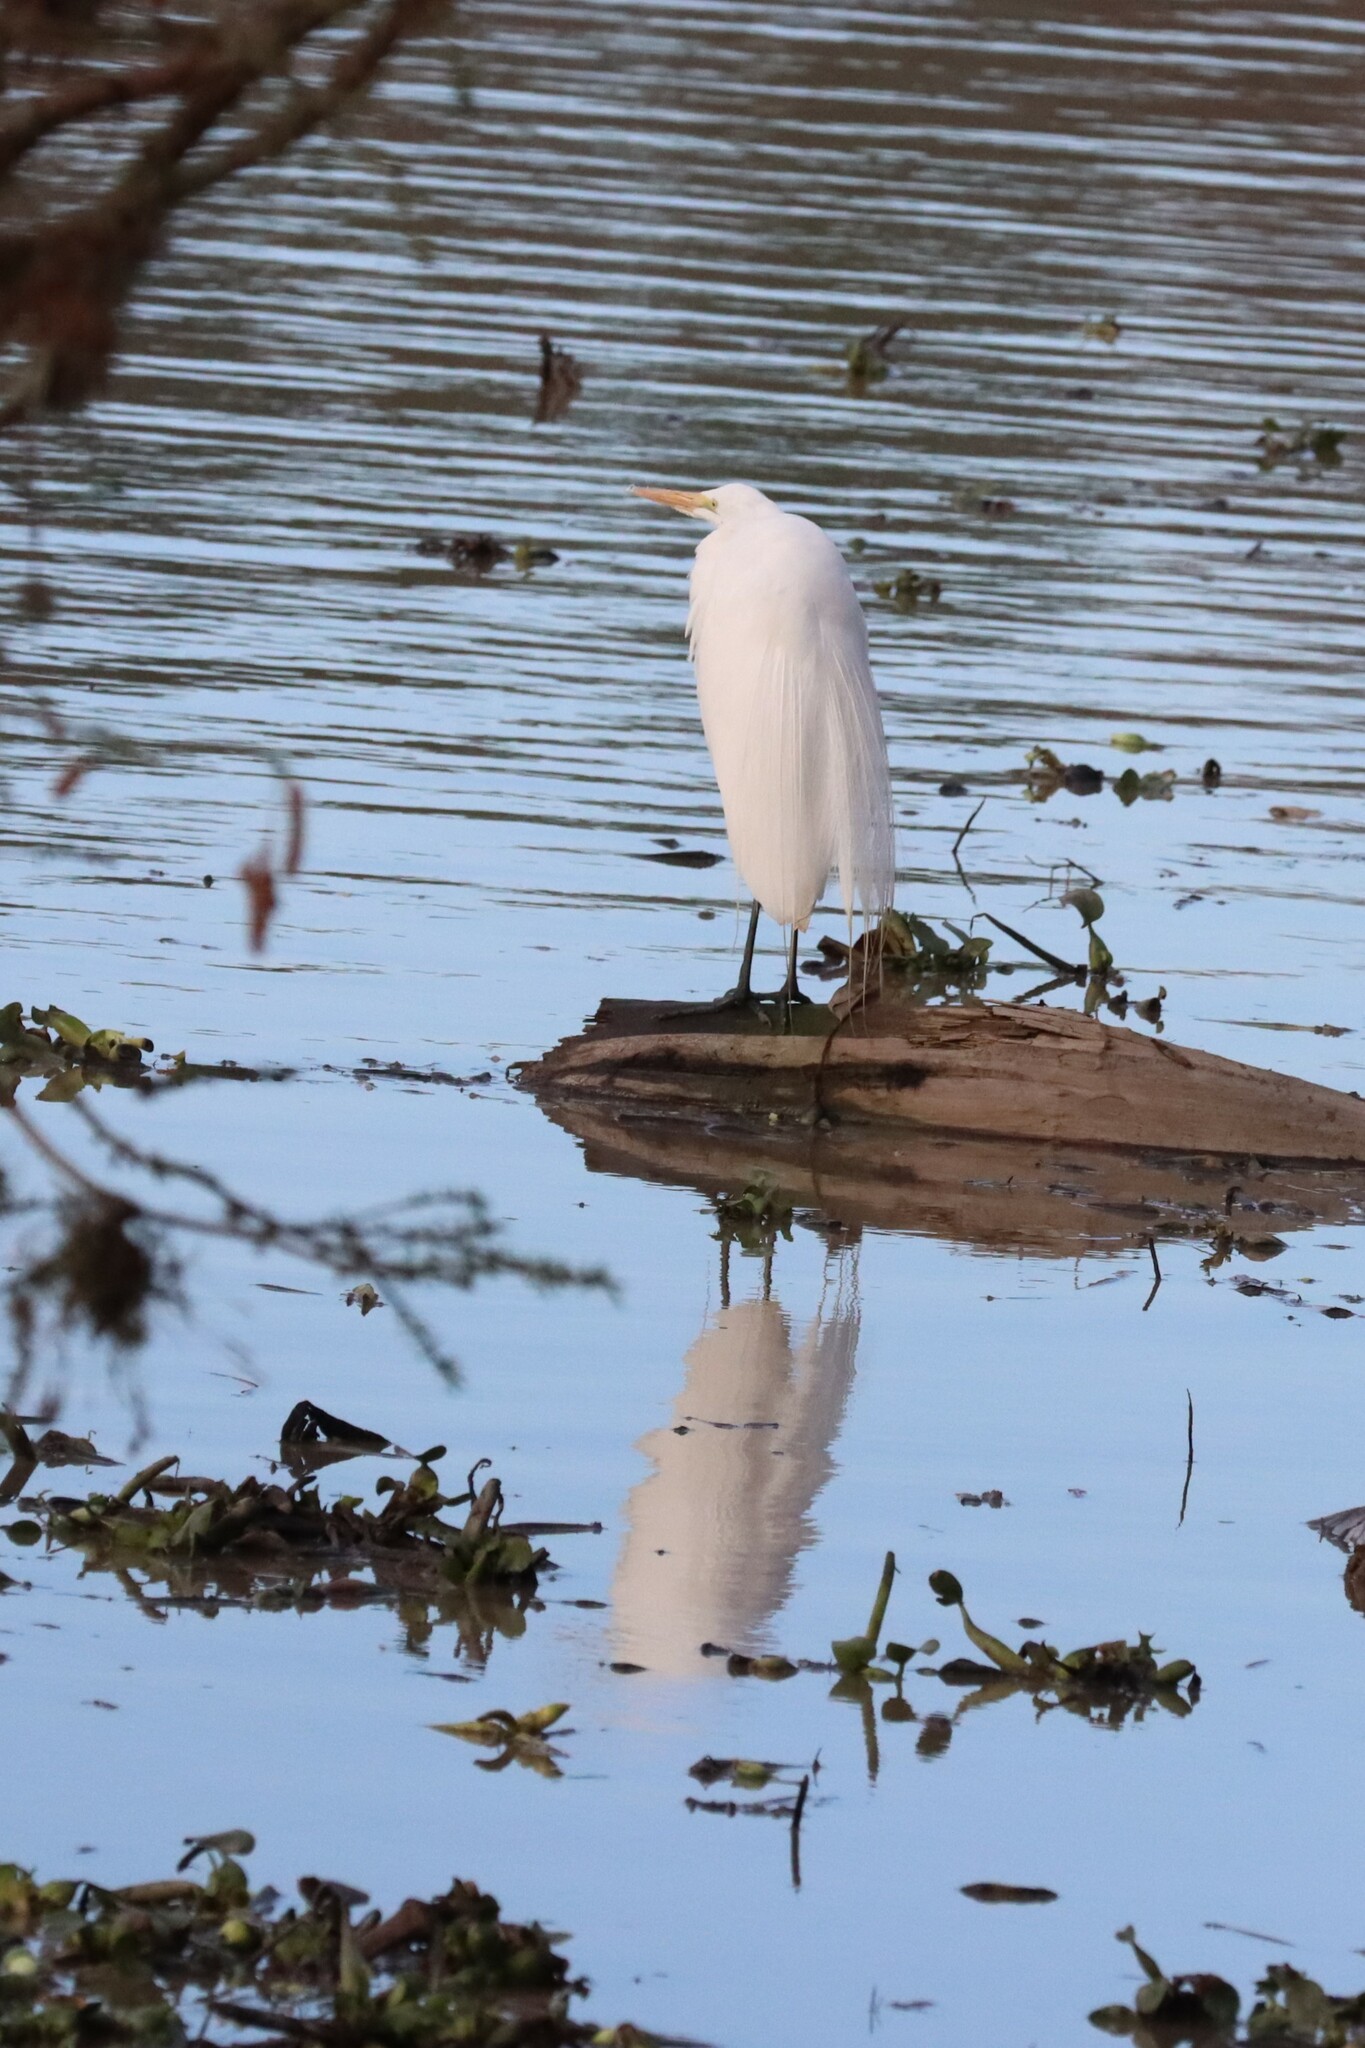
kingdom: Animalia
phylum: Chordata
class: Aves
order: Pelecaniformes
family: Ardeidae
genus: Ardea
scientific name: Ardea alba
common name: Great egret
